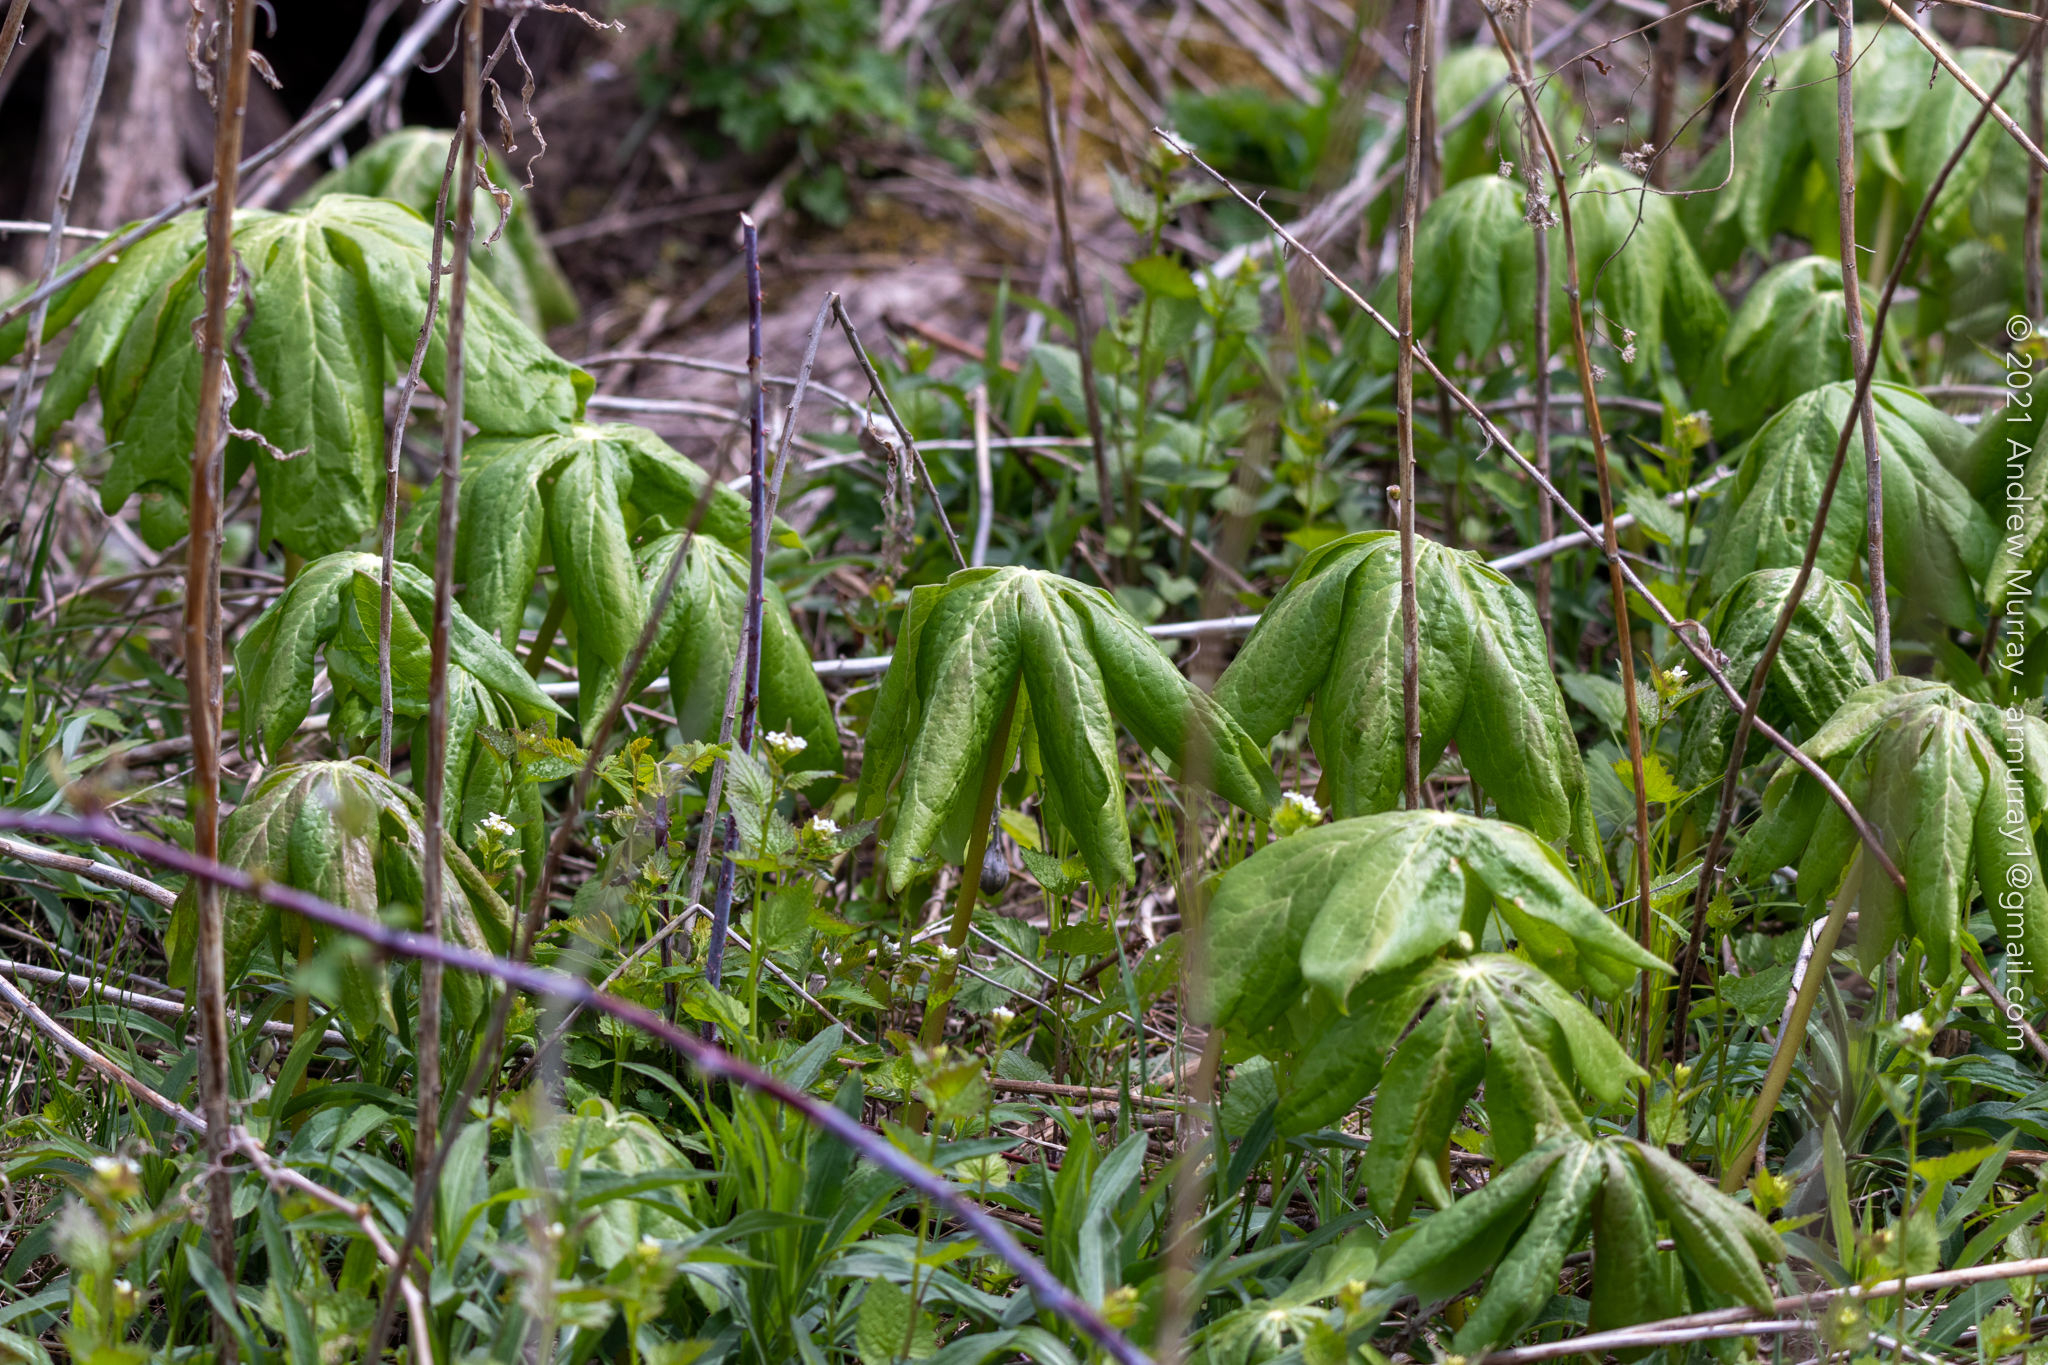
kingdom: Plantae
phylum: Tracheophyta
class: Magnoliopsida
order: Ranunculales
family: Berberidaceae
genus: Podophyllum
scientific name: Podophyllum peltatum
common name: Wild mandrake
